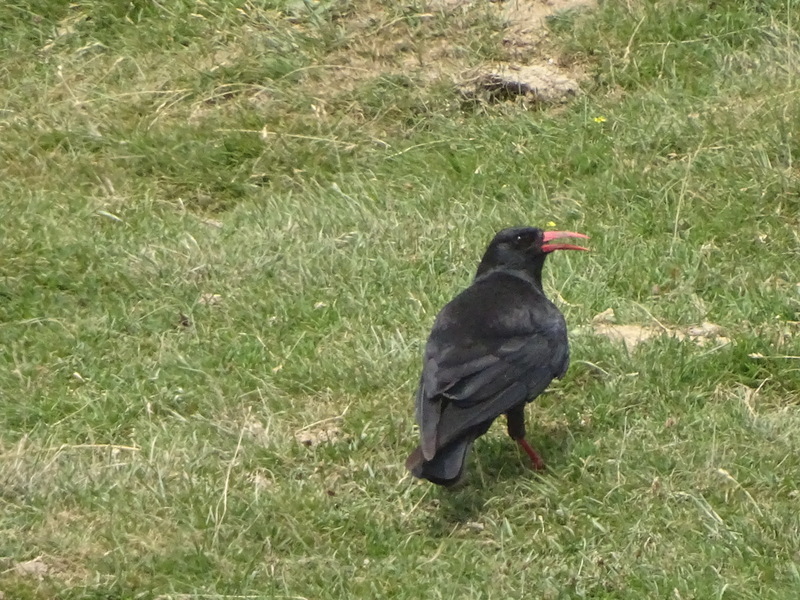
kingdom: Animalia
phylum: Chordata
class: Aves
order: Passeriformes
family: Corvidae
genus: Pyrrhocorax
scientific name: Pyrrhocorax pyrrhocorax
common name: Red-billed chough
